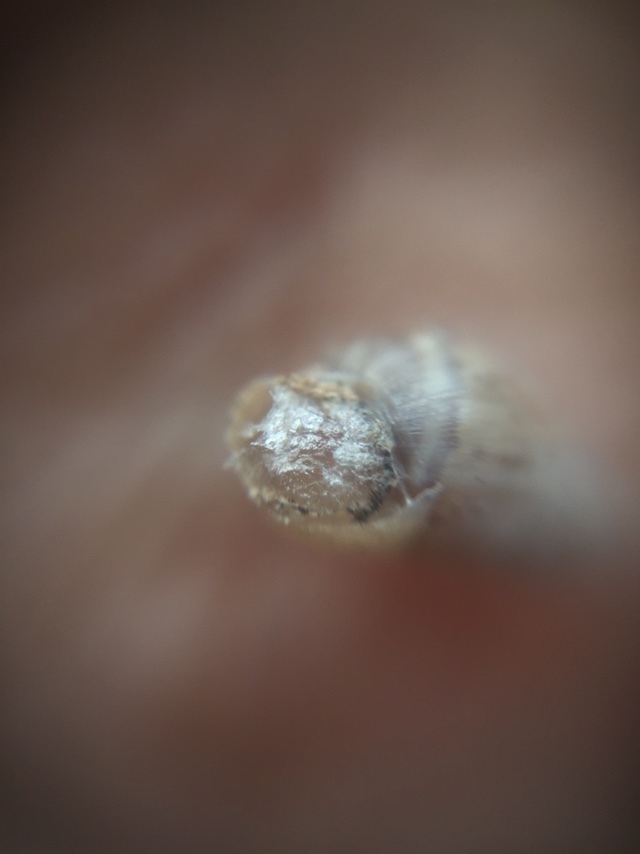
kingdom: Animalia
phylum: Mollusca
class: Gastropoda
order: Stylommatophora
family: Cerastidae
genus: Rachis
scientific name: Rachis punctata
